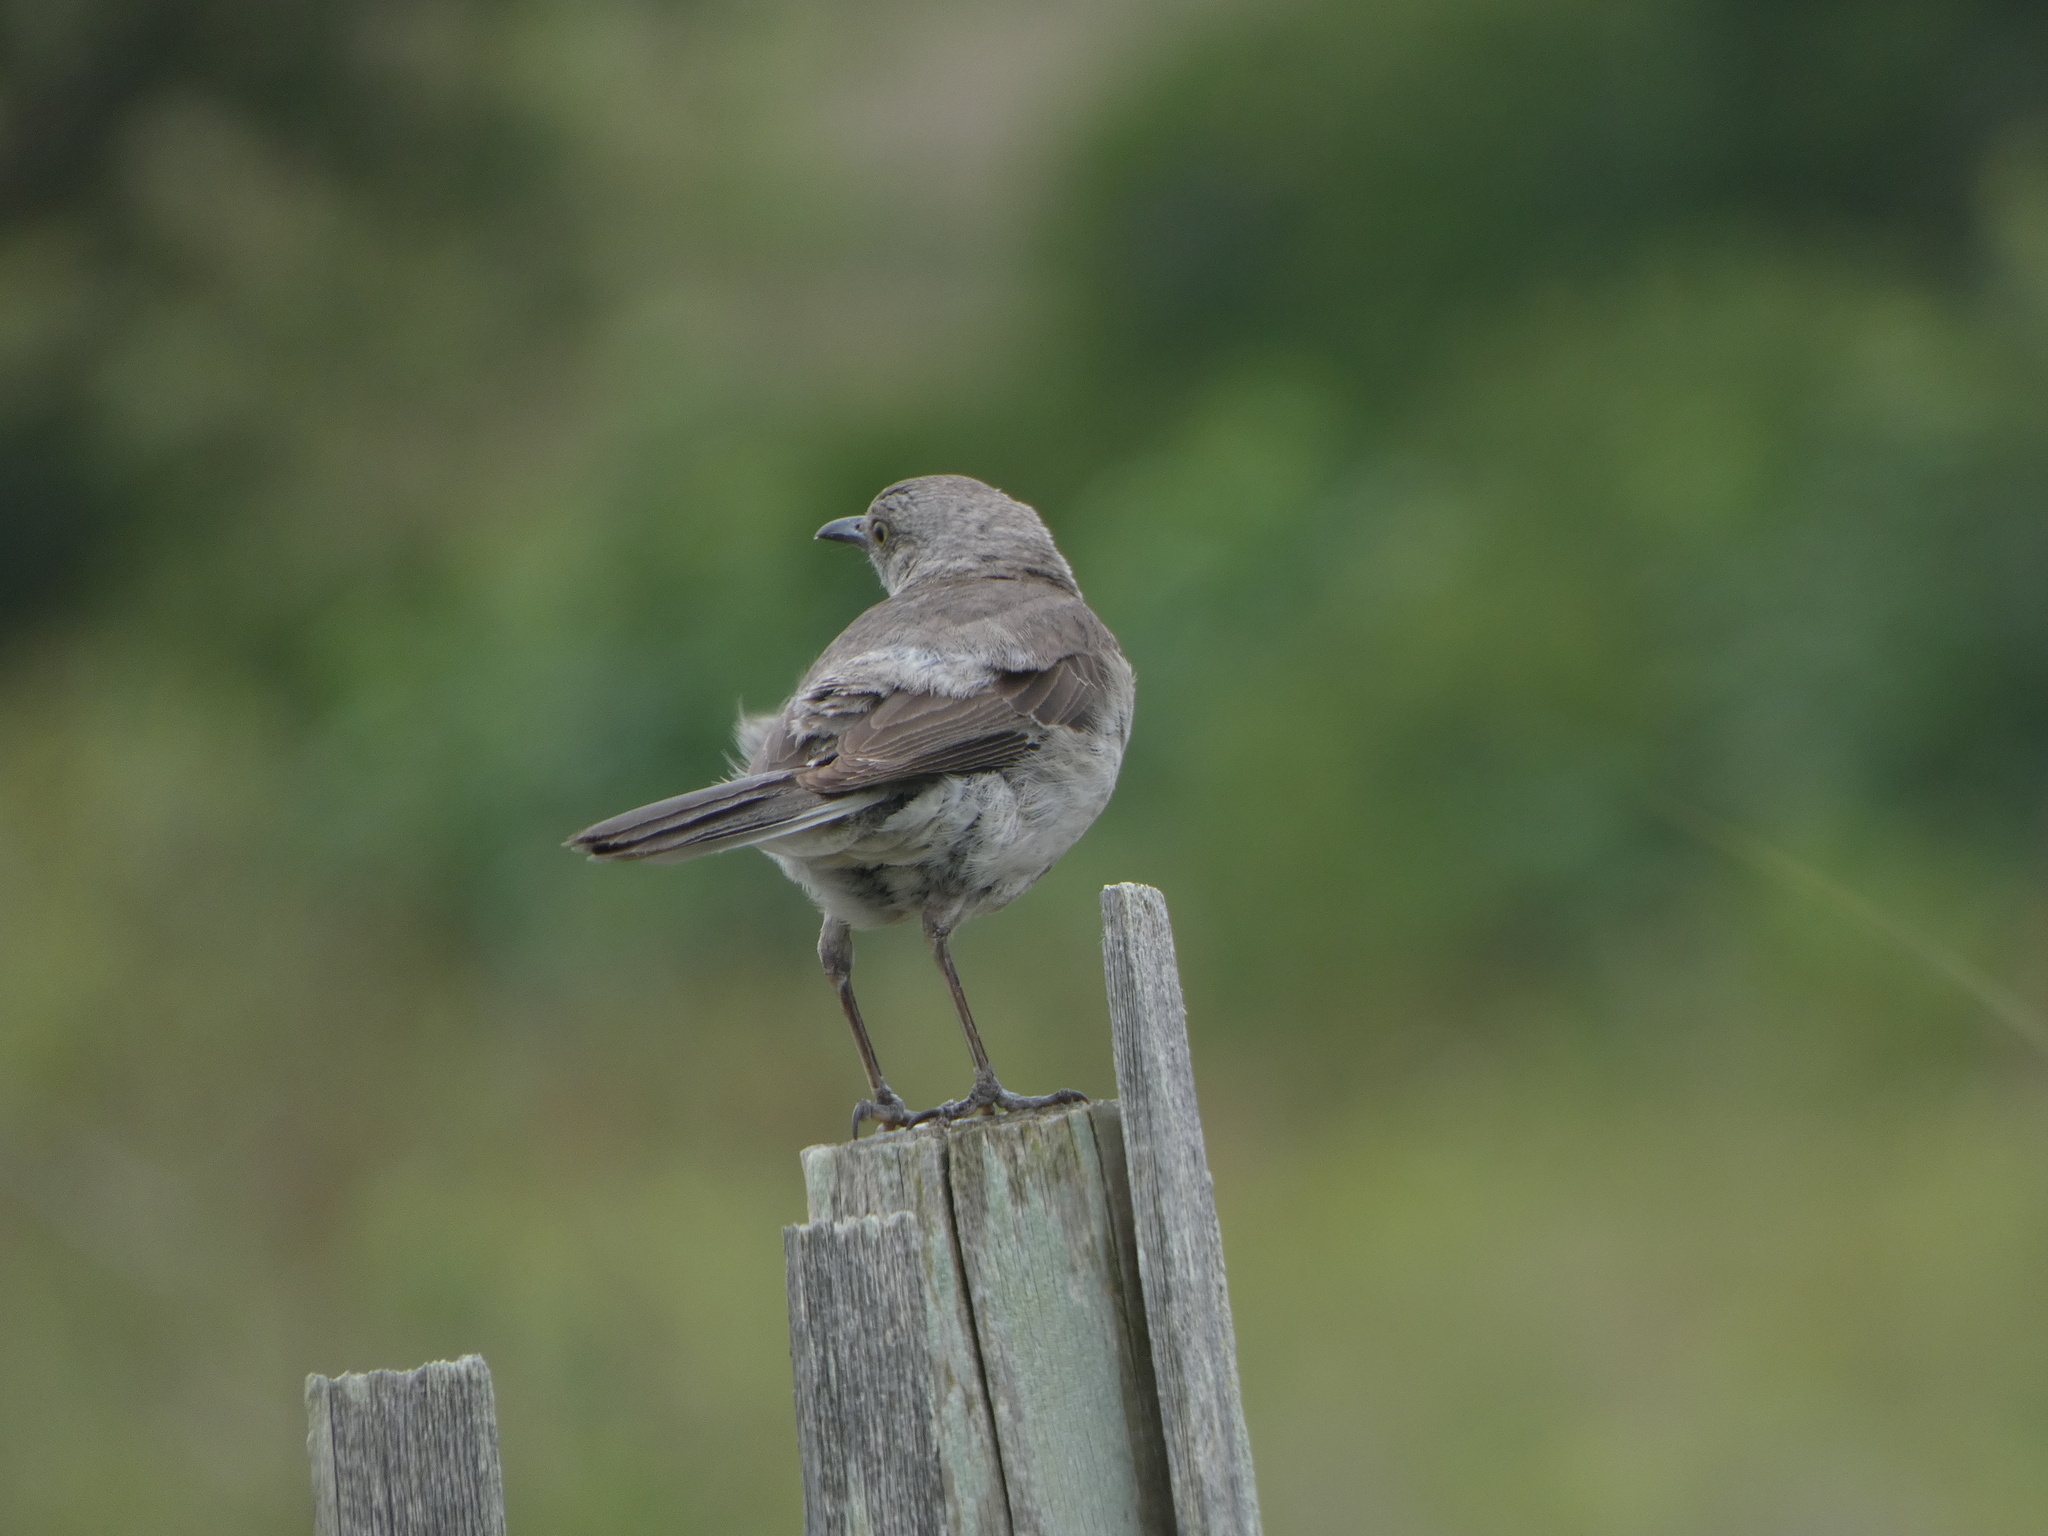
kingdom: Animalia
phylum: Chordata
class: Aves
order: Passeriformes
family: Mimidae
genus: Mimus
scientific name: Mimus polyglottos
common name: Northern mockingbird
